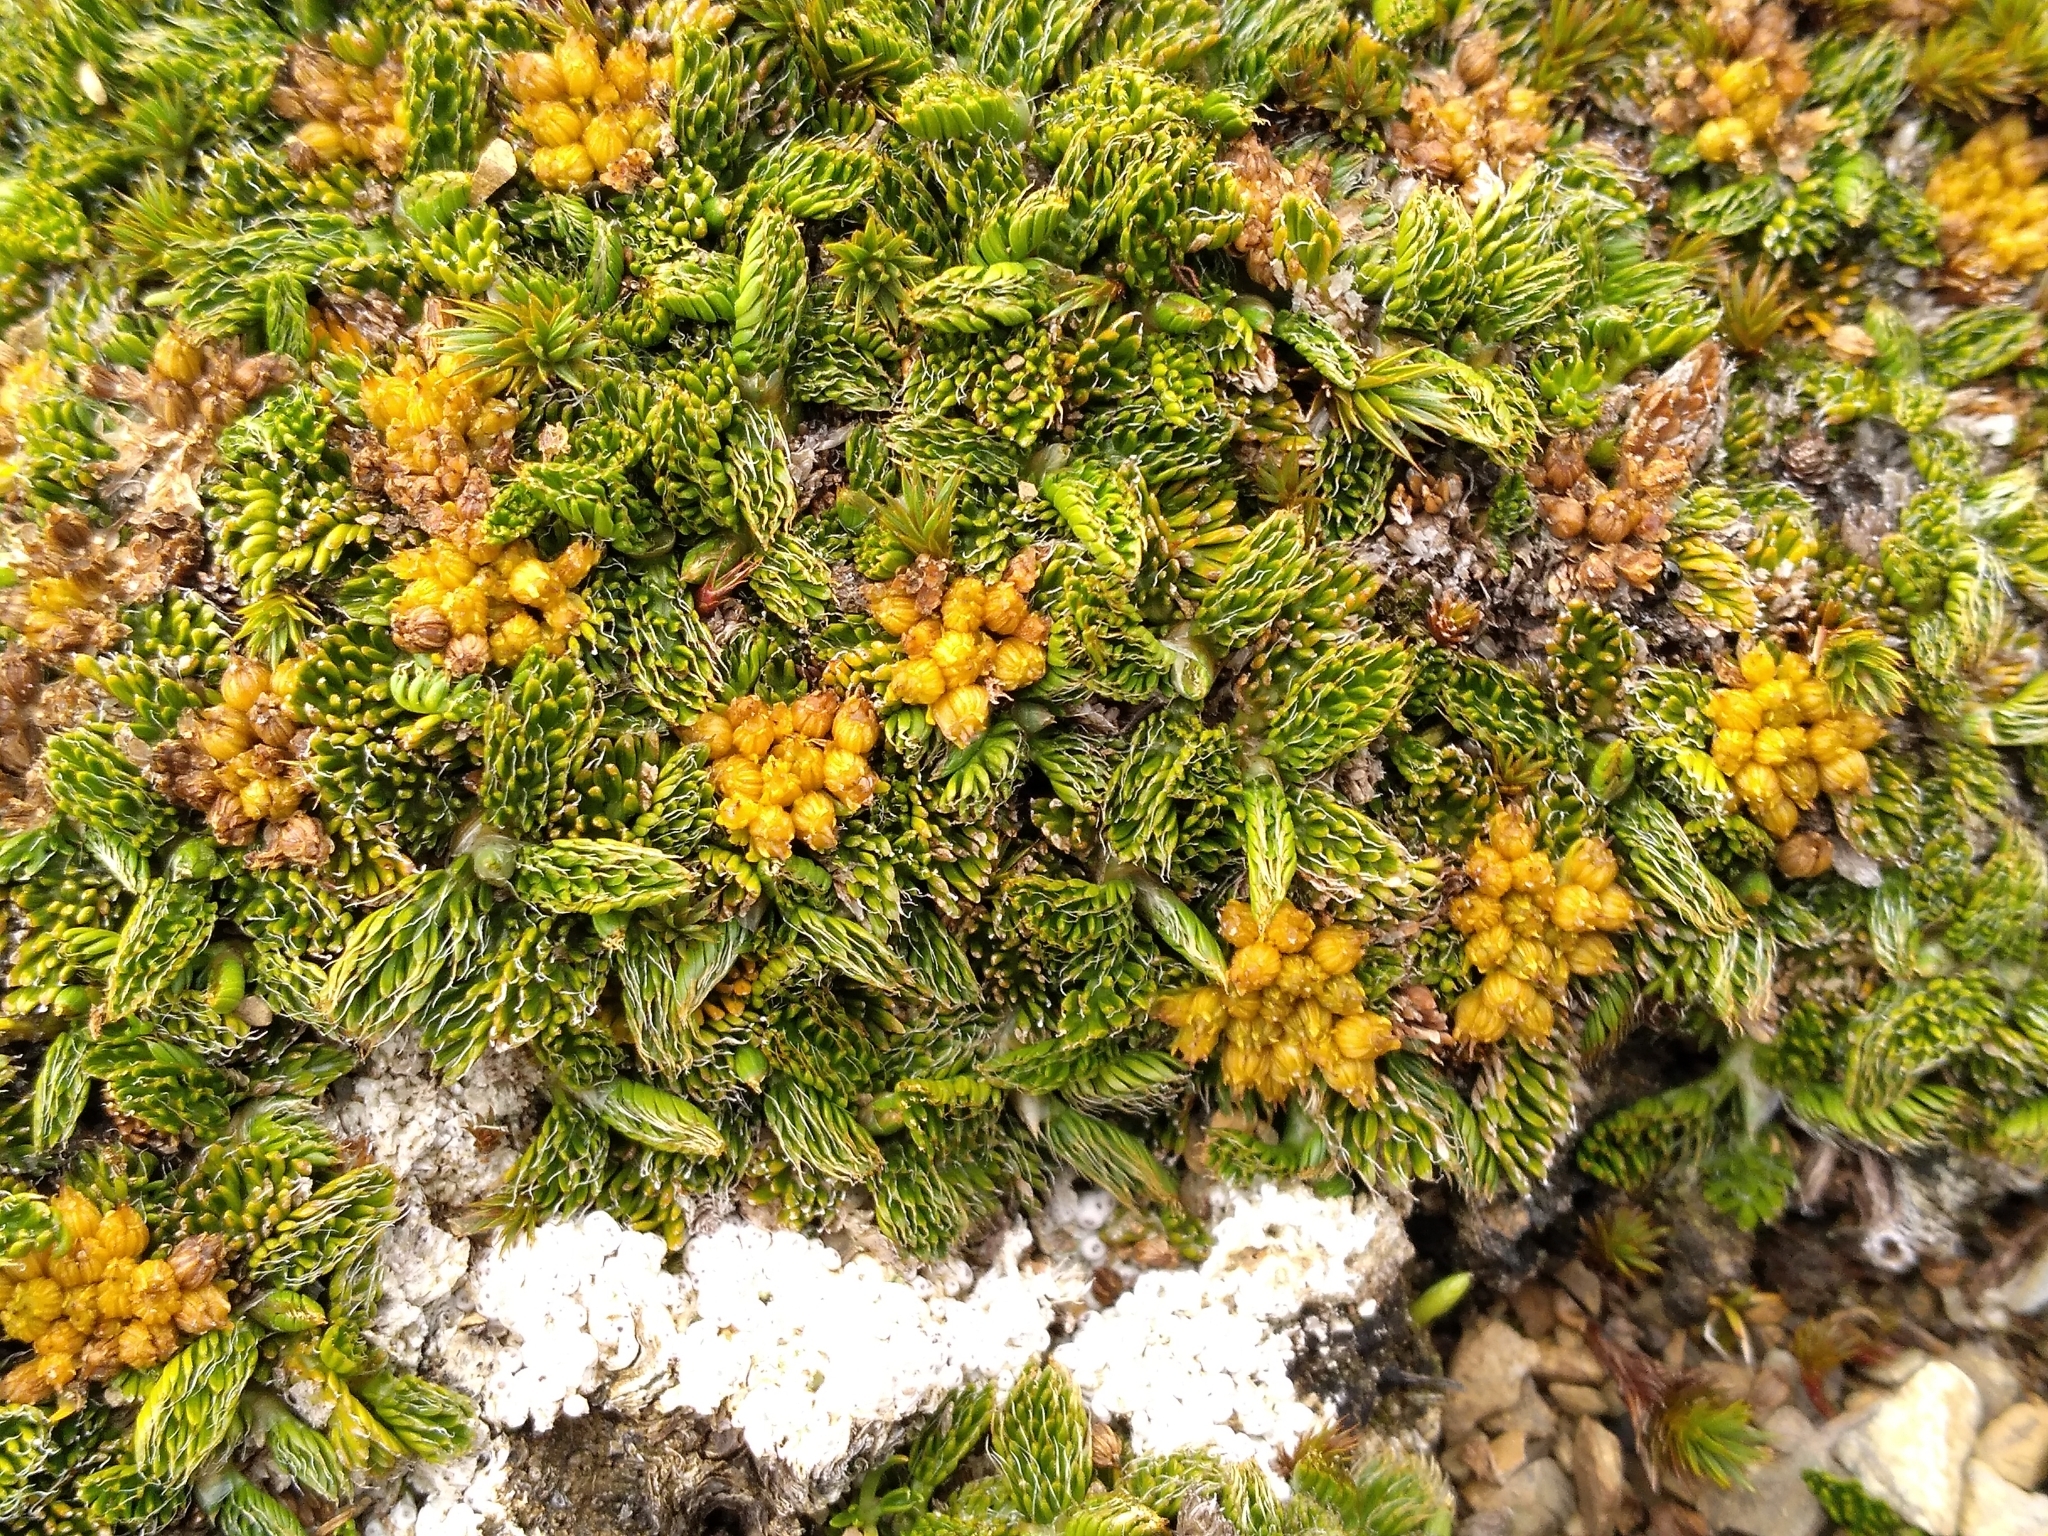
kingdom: Plantae
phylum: Tracheophyta
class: Magnoliopsida
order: Apiales
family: Apiaceae
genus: Anisotome
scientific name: Anisotome imbricata
